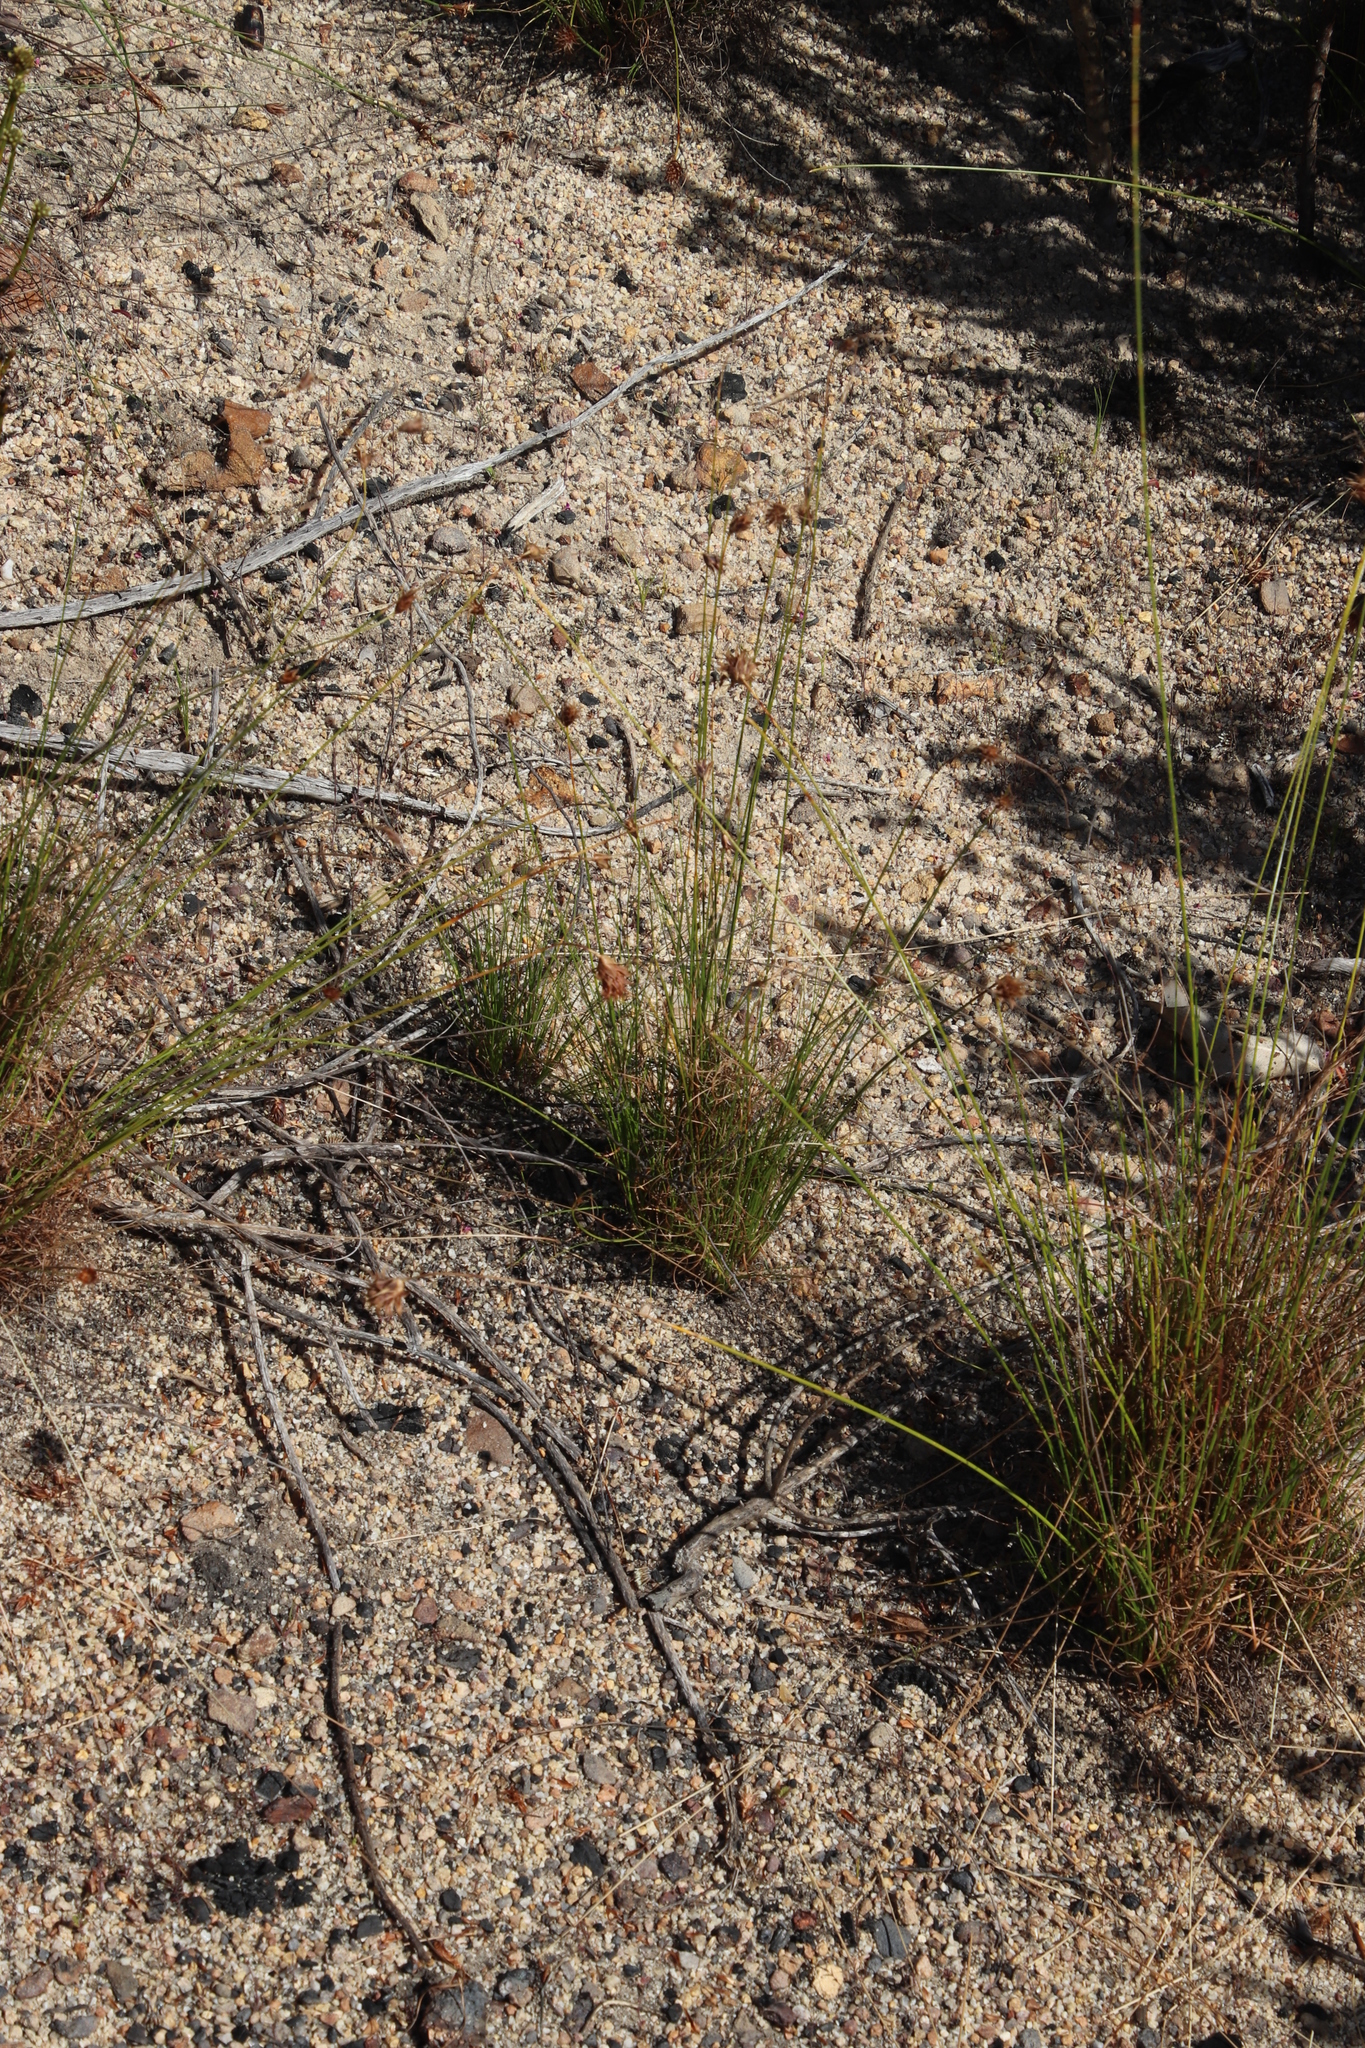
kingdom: Plantae
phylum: Tracheophyta
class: Liliopsida
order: Poales
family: Cyperaceae
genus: Ficinia
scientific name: Ficinia nigrescens
